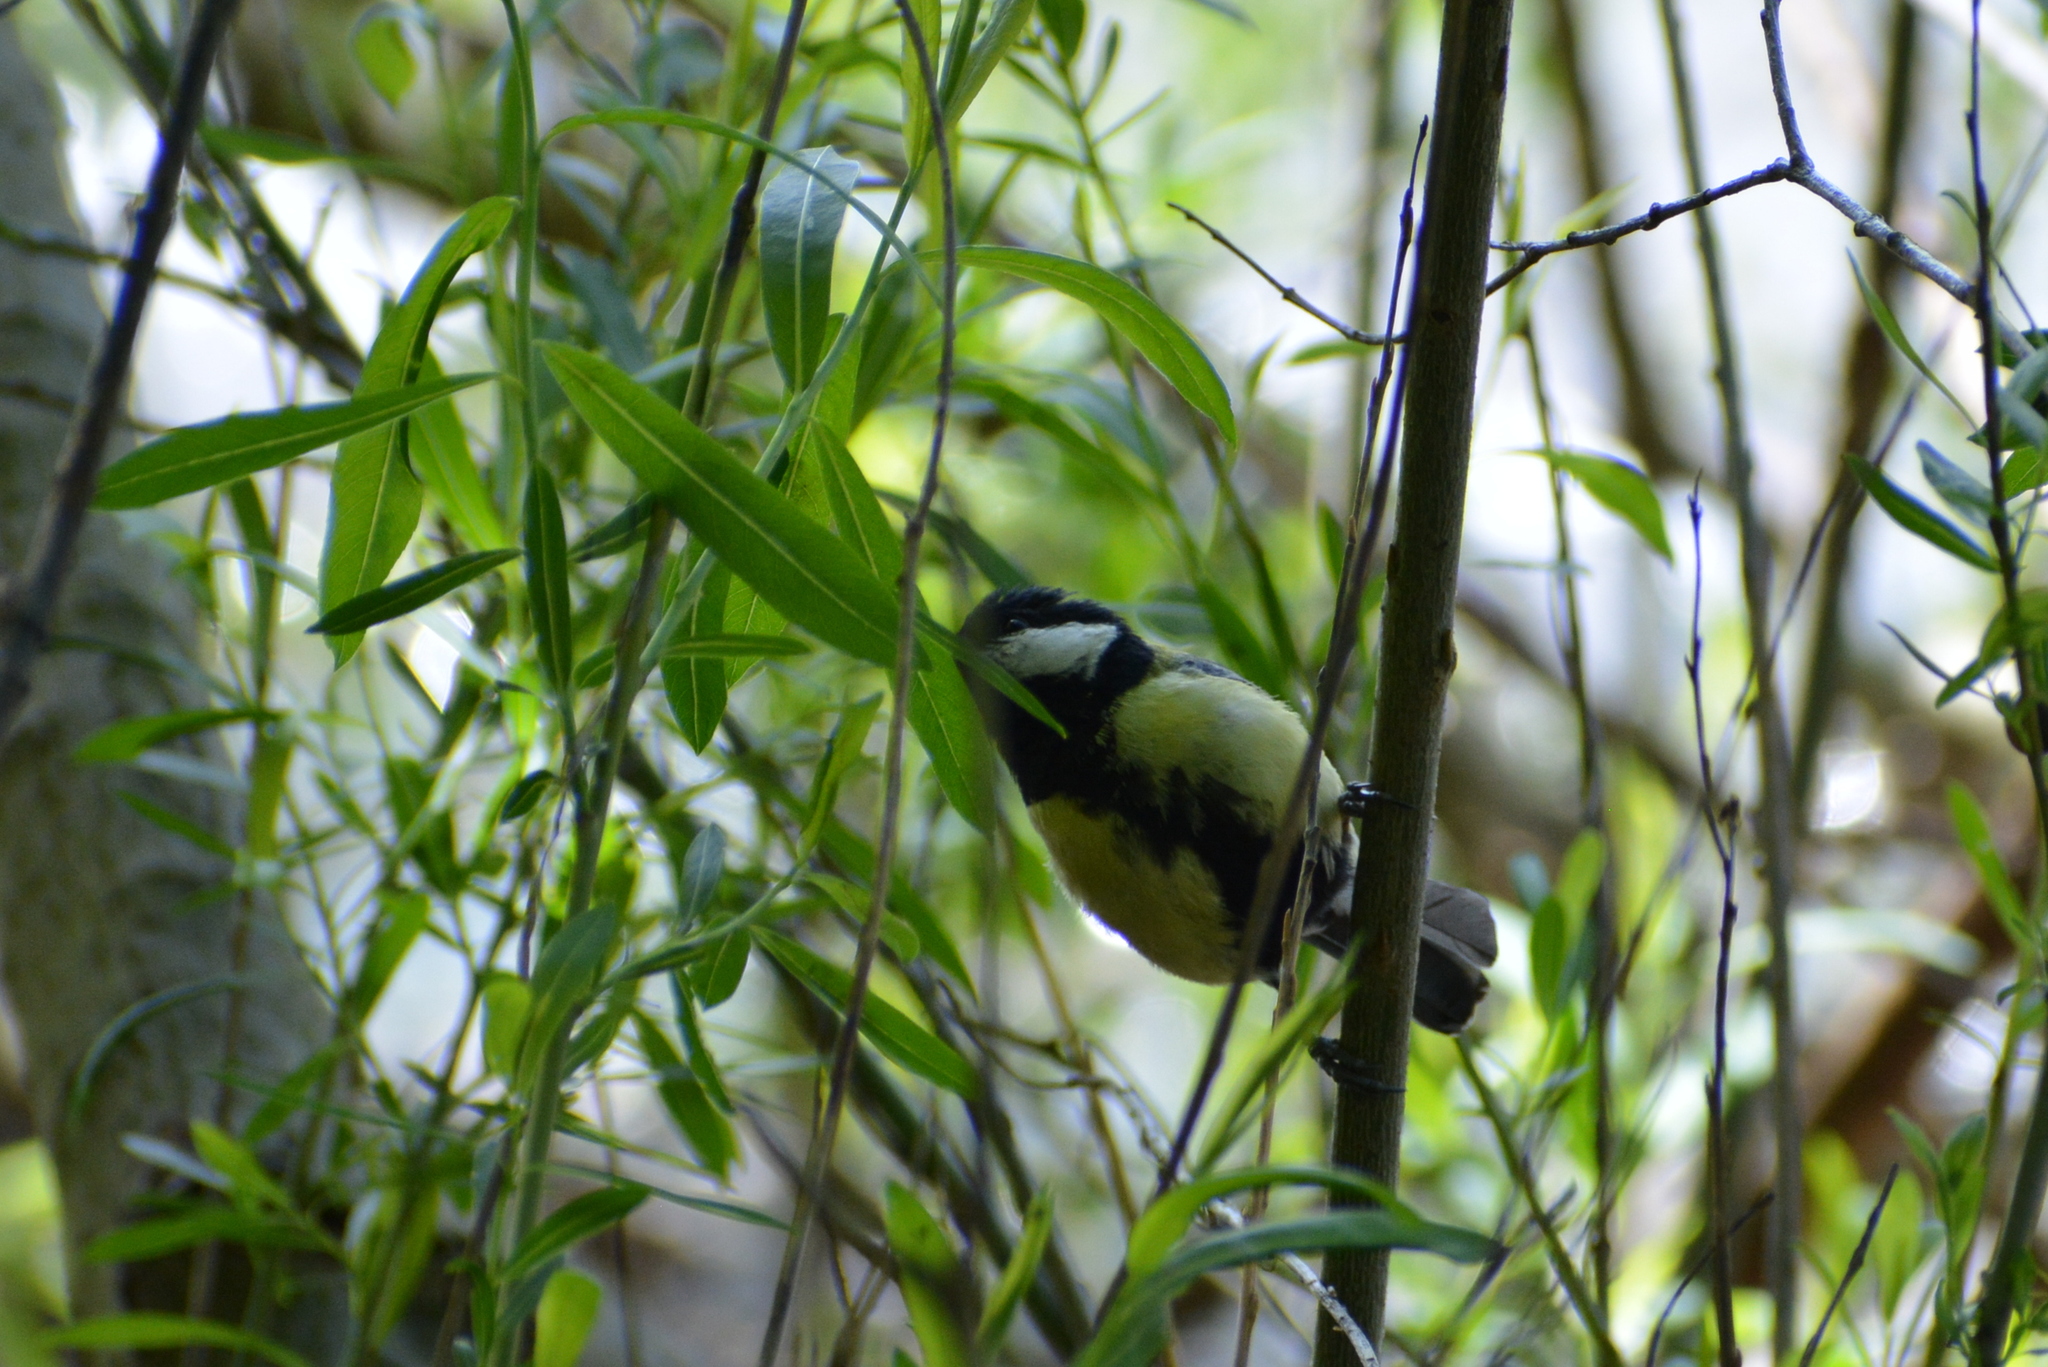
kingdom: Animalia
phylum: Chordata
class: Aves
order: Passeriformes
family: Paridae
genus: Parus
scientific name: Parus major
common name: Great tit
